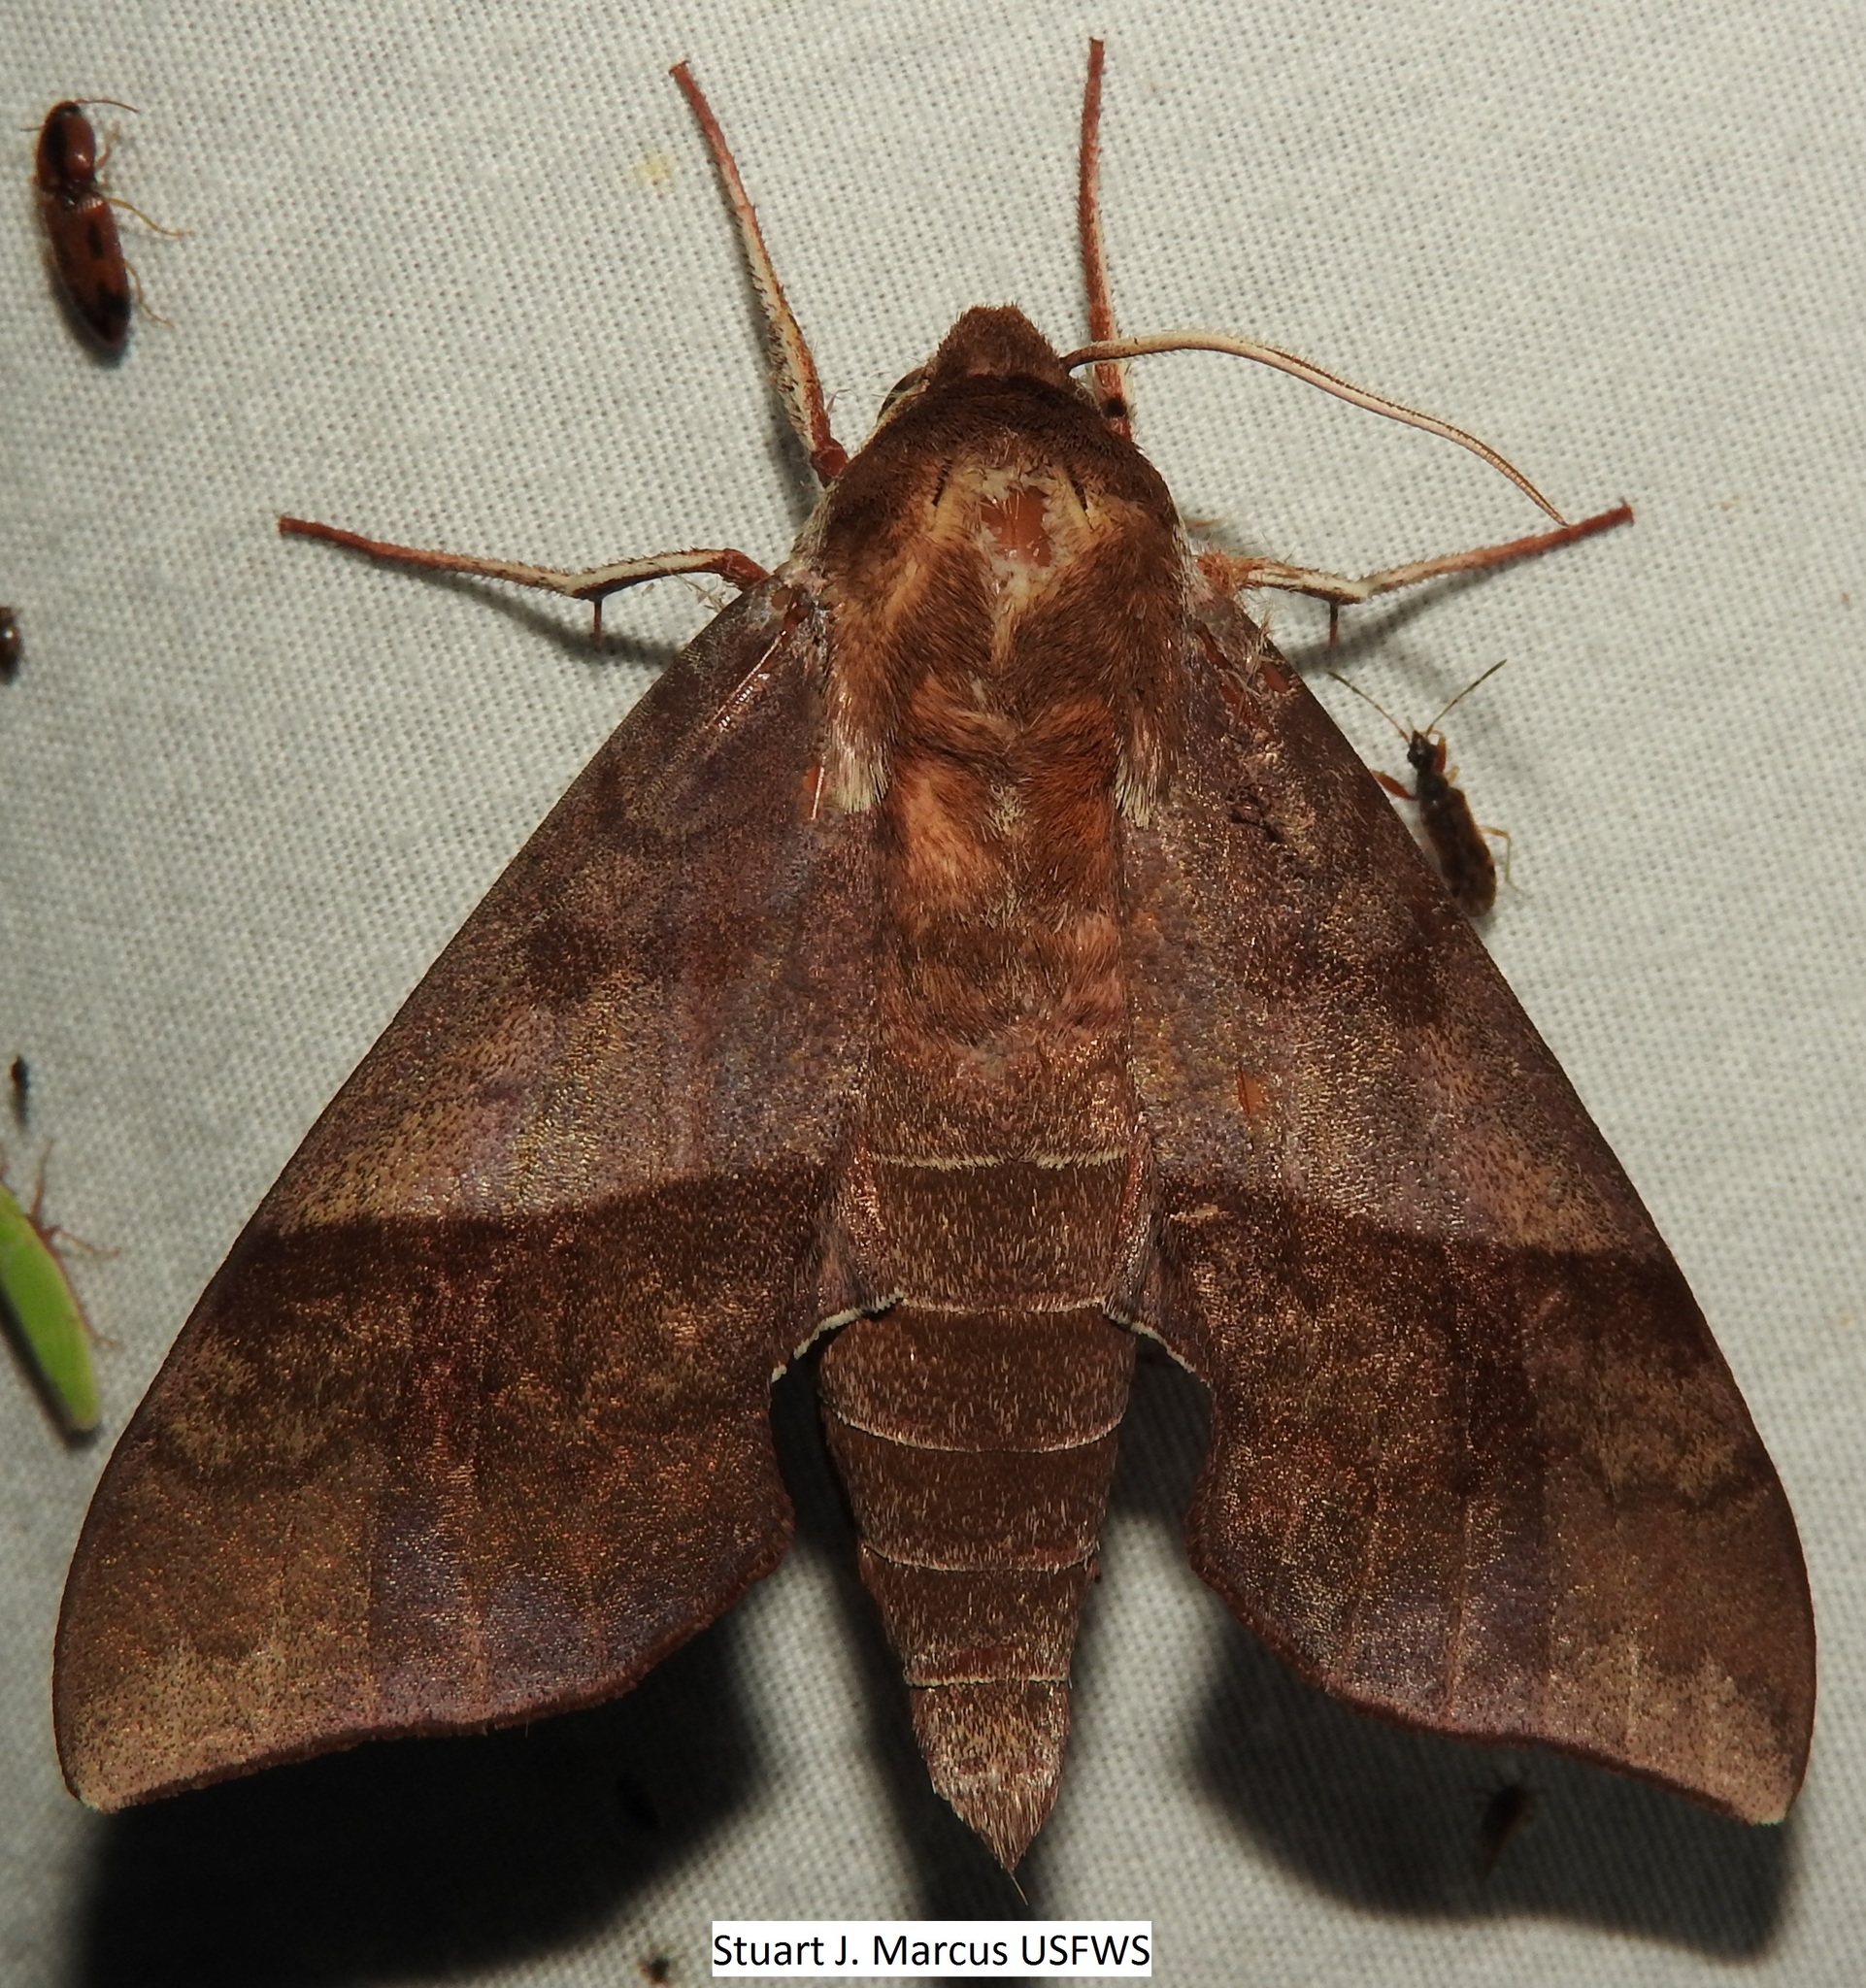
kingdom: Animalia
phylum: Arthropoda
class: Insecta
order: Lepidoptera
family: Sphingidae
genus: Darapsa
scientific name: Darapsa choerilus
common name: Azalea sphinx
